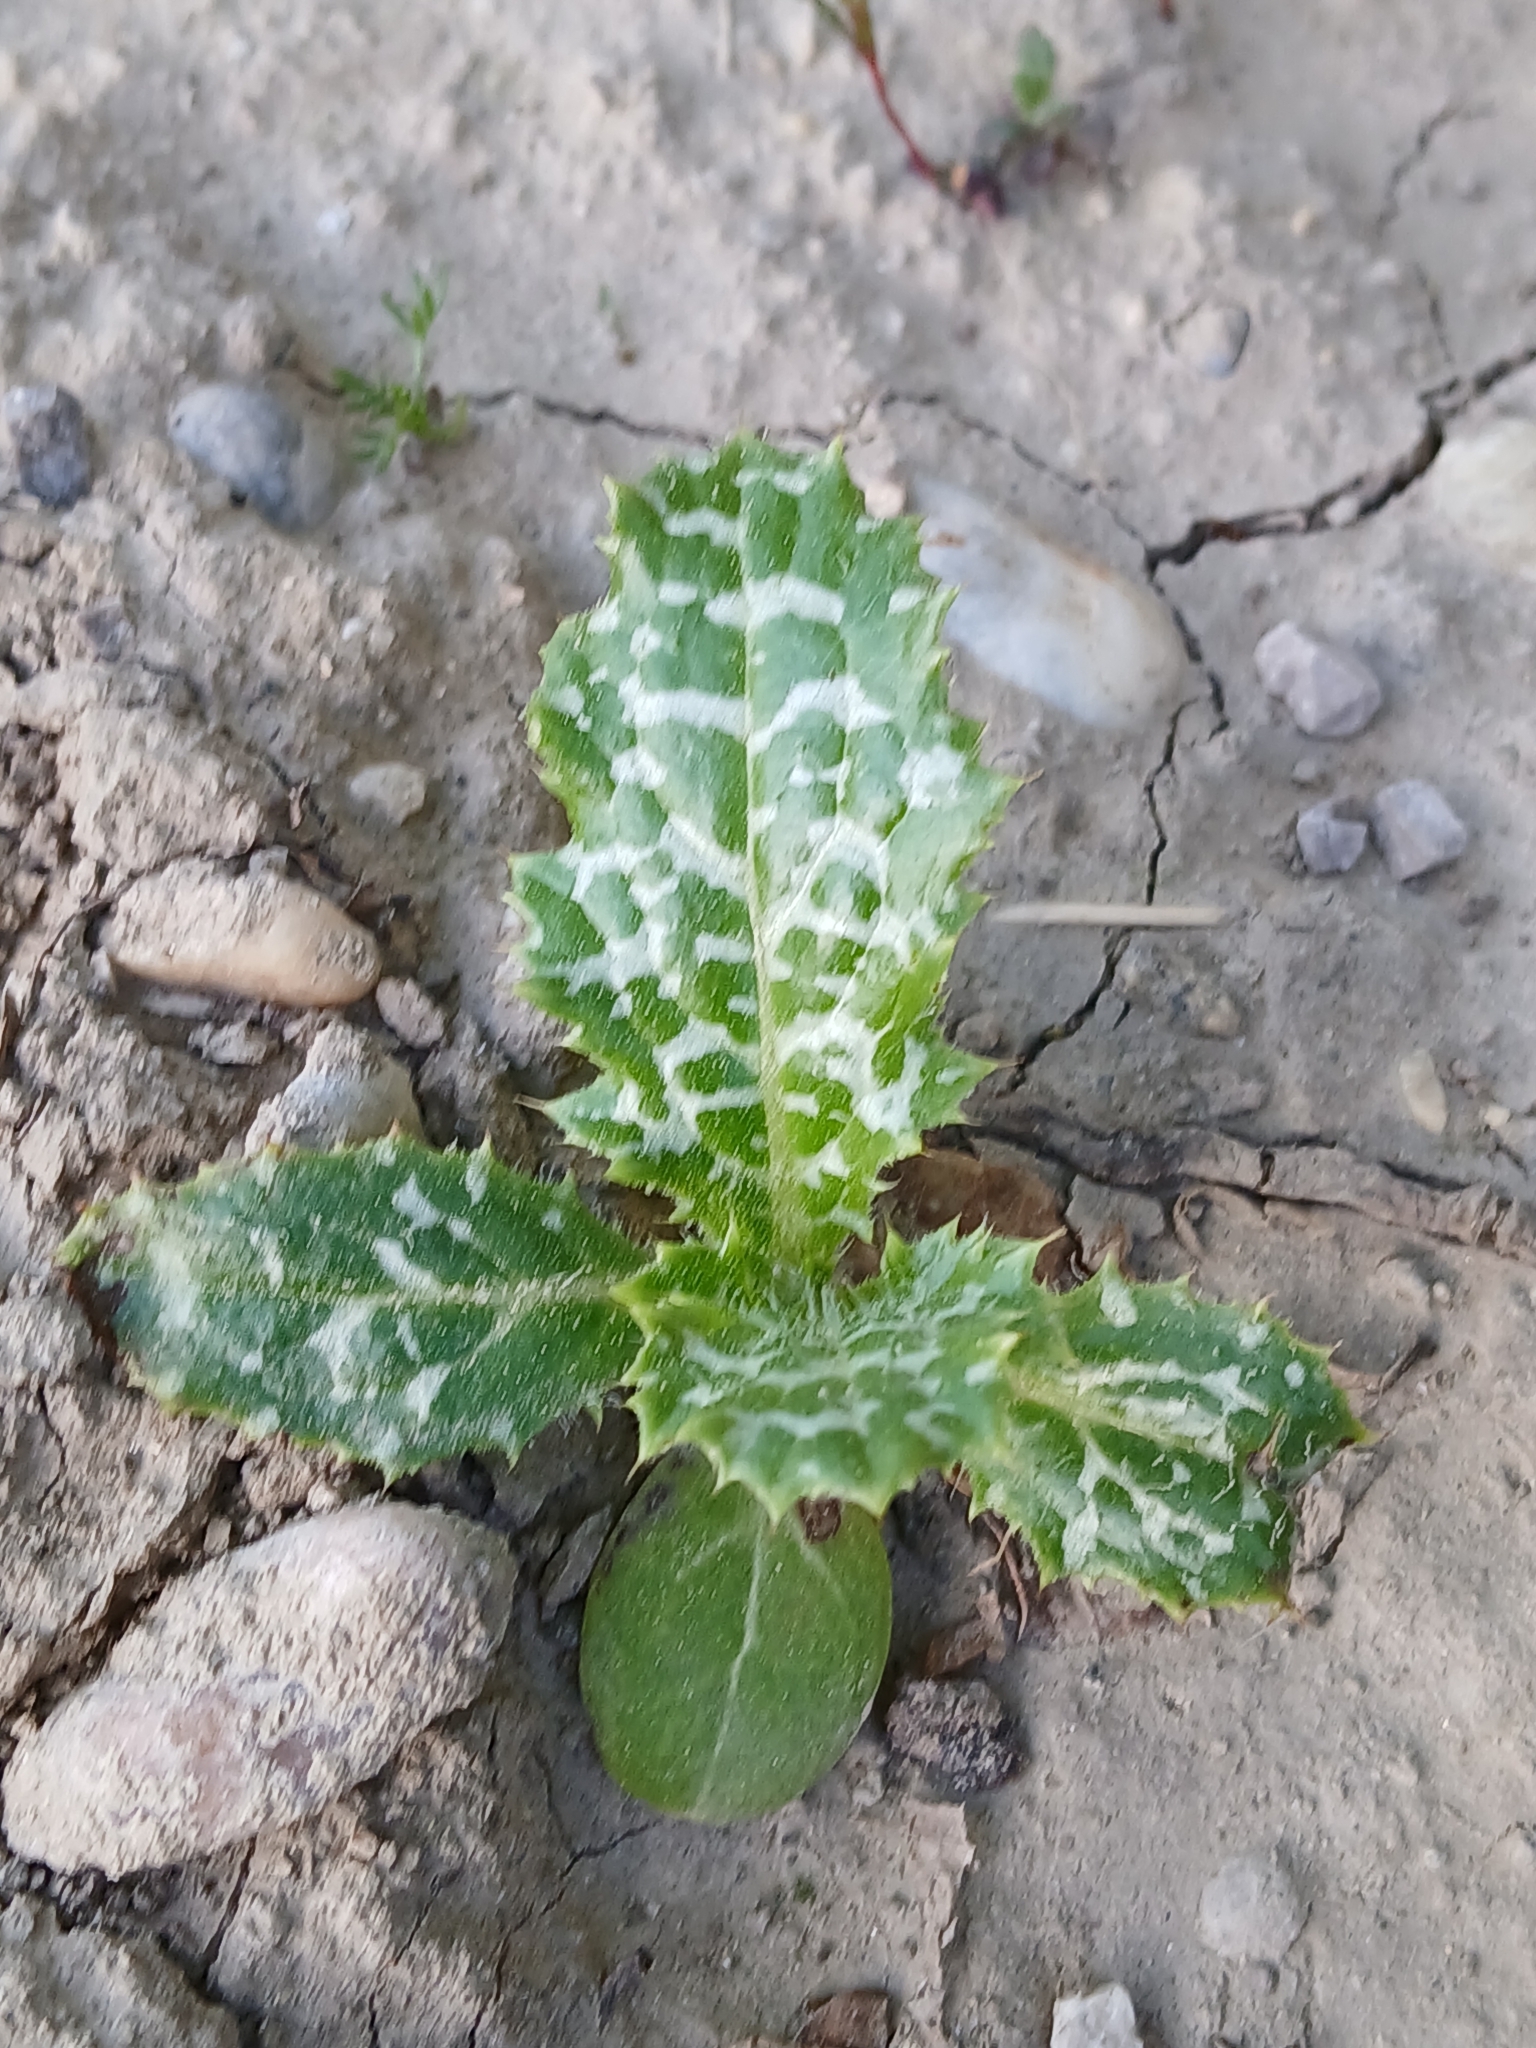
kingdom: Plantae
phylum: Tracheophyta
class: Magnoliopsida
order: Asterales
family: Asteraceae
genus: Silybum
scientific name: Silybum marianum
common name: Milk thistle
